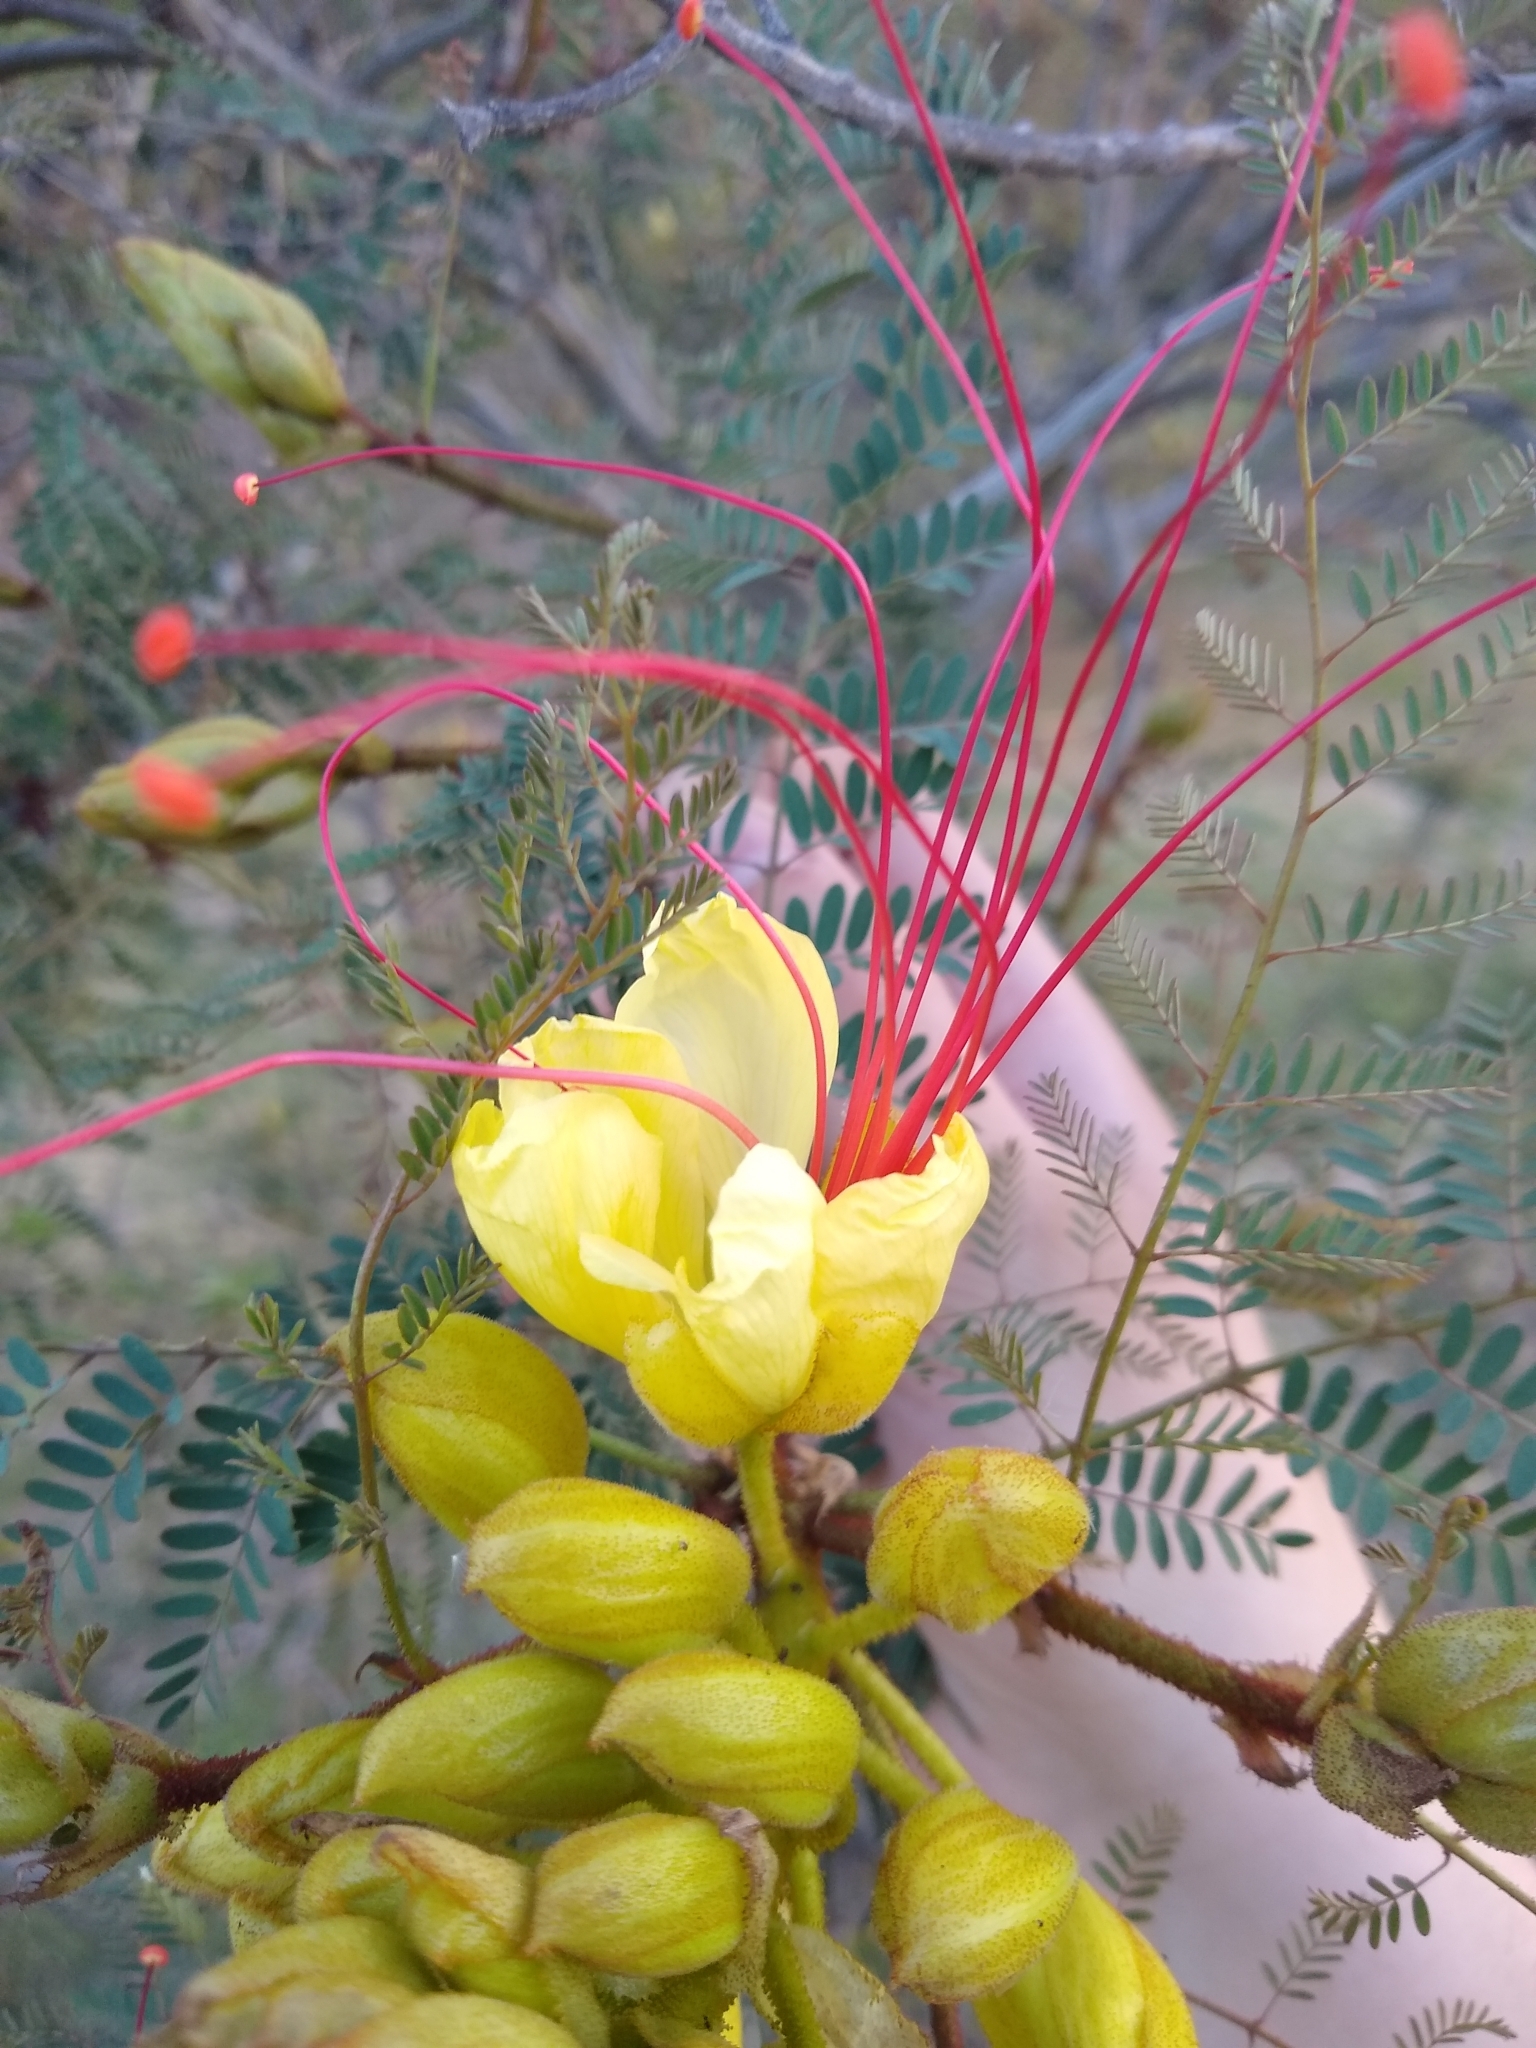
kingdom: Plantae
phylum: Tracheophyta
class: Magnoliopsida
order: Fabales
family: Fabaceae
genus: Erythrostemon
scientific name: Erythrostemon gilliesii
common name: Bird-of-paradise shrub
